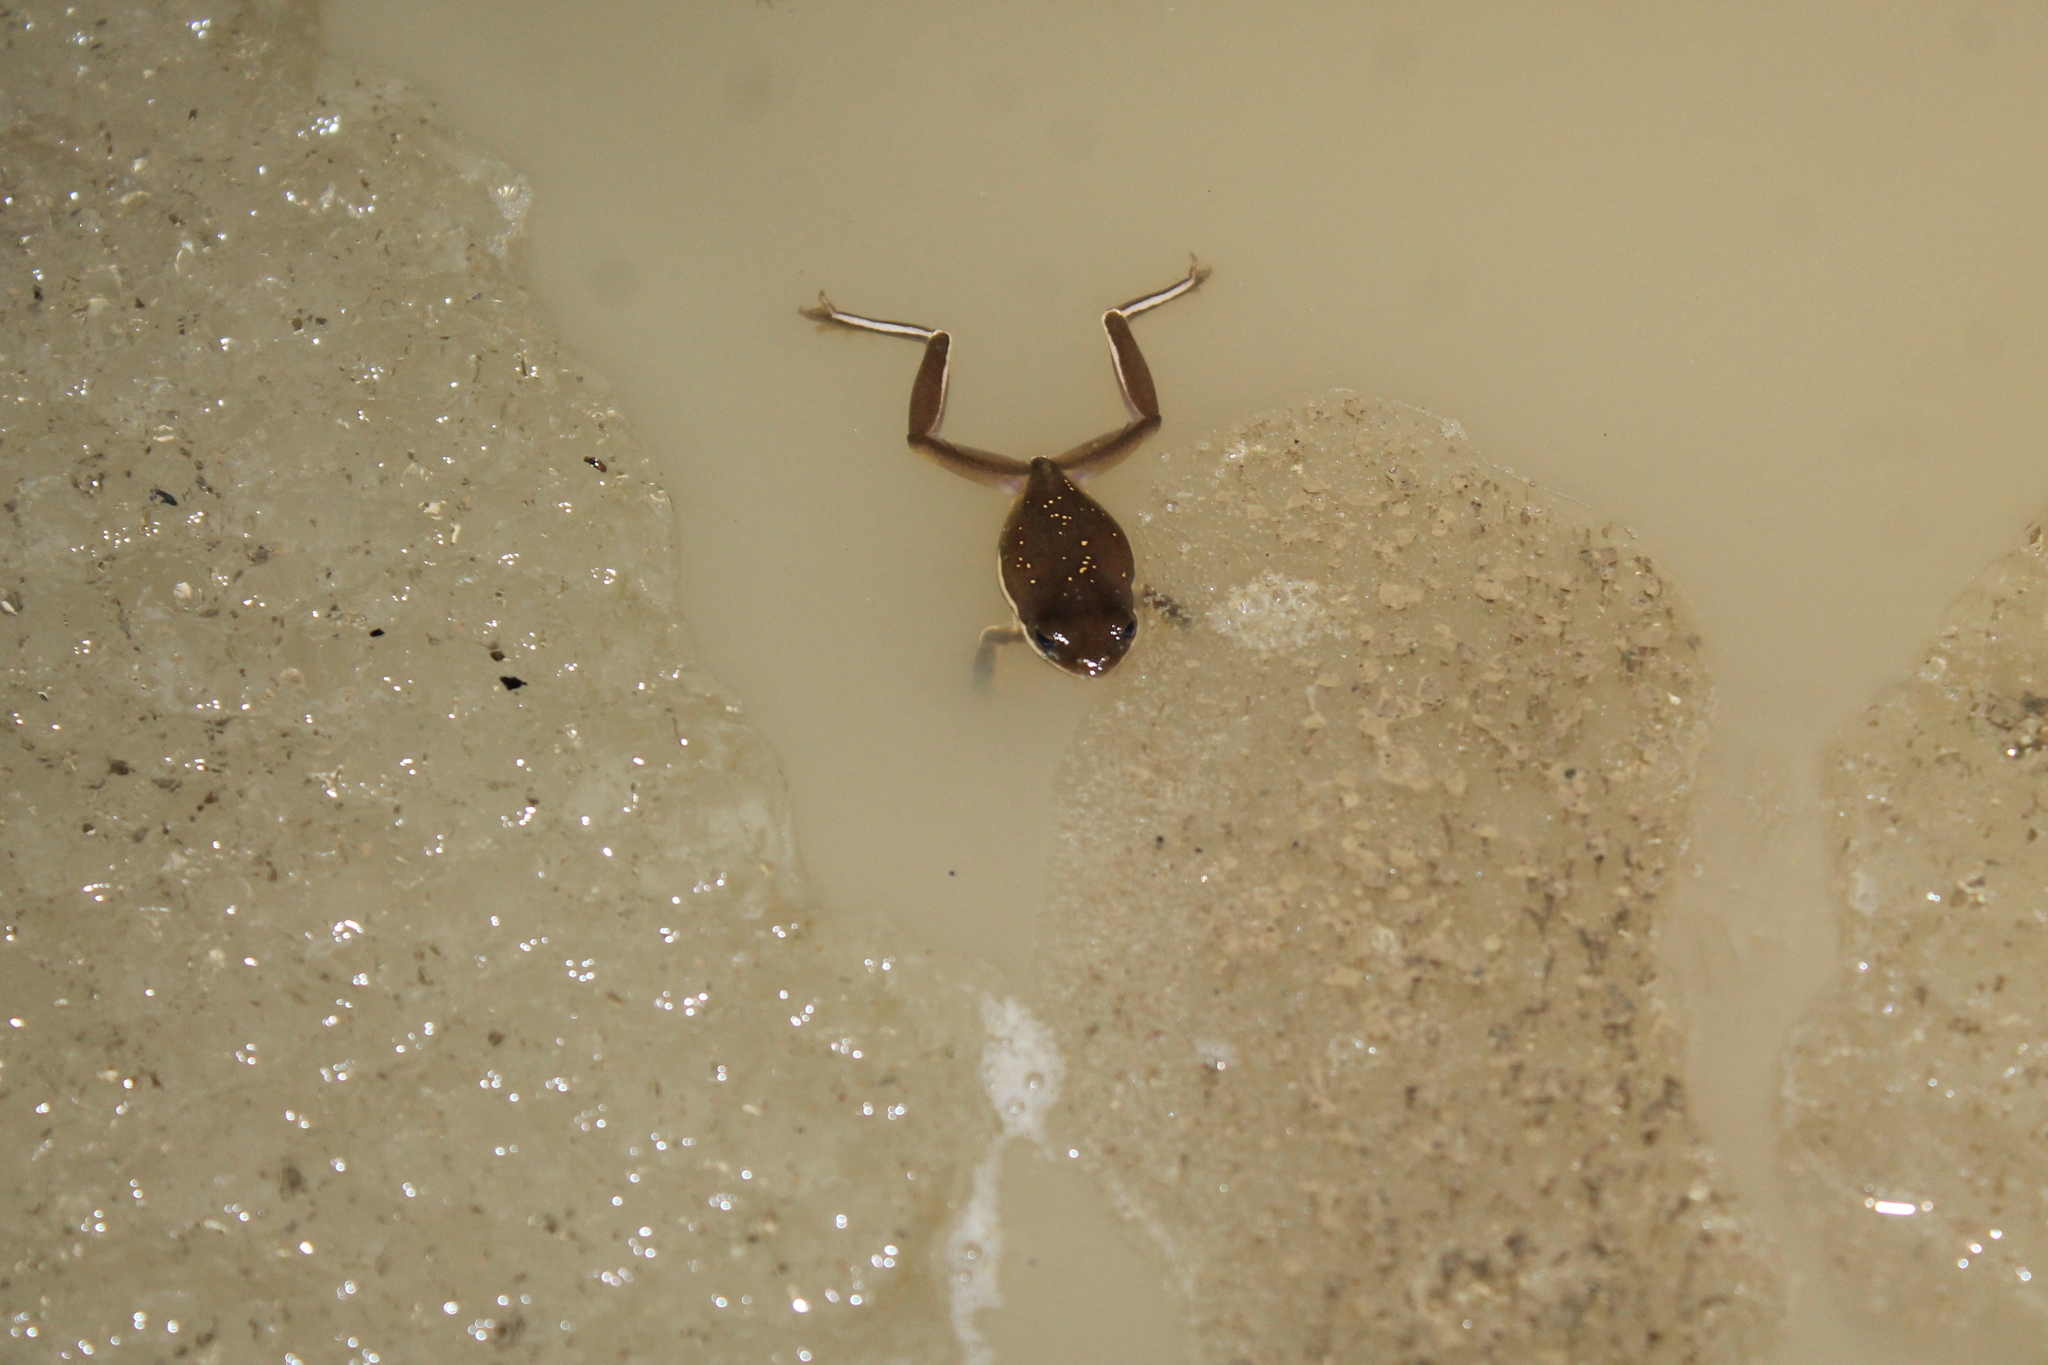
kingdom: Animalia
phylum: Chordata
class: Amphibia
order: Anura
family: Hylidae
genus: Dryophytes
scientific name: Dryophytes cinereus
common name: Green treefrog
